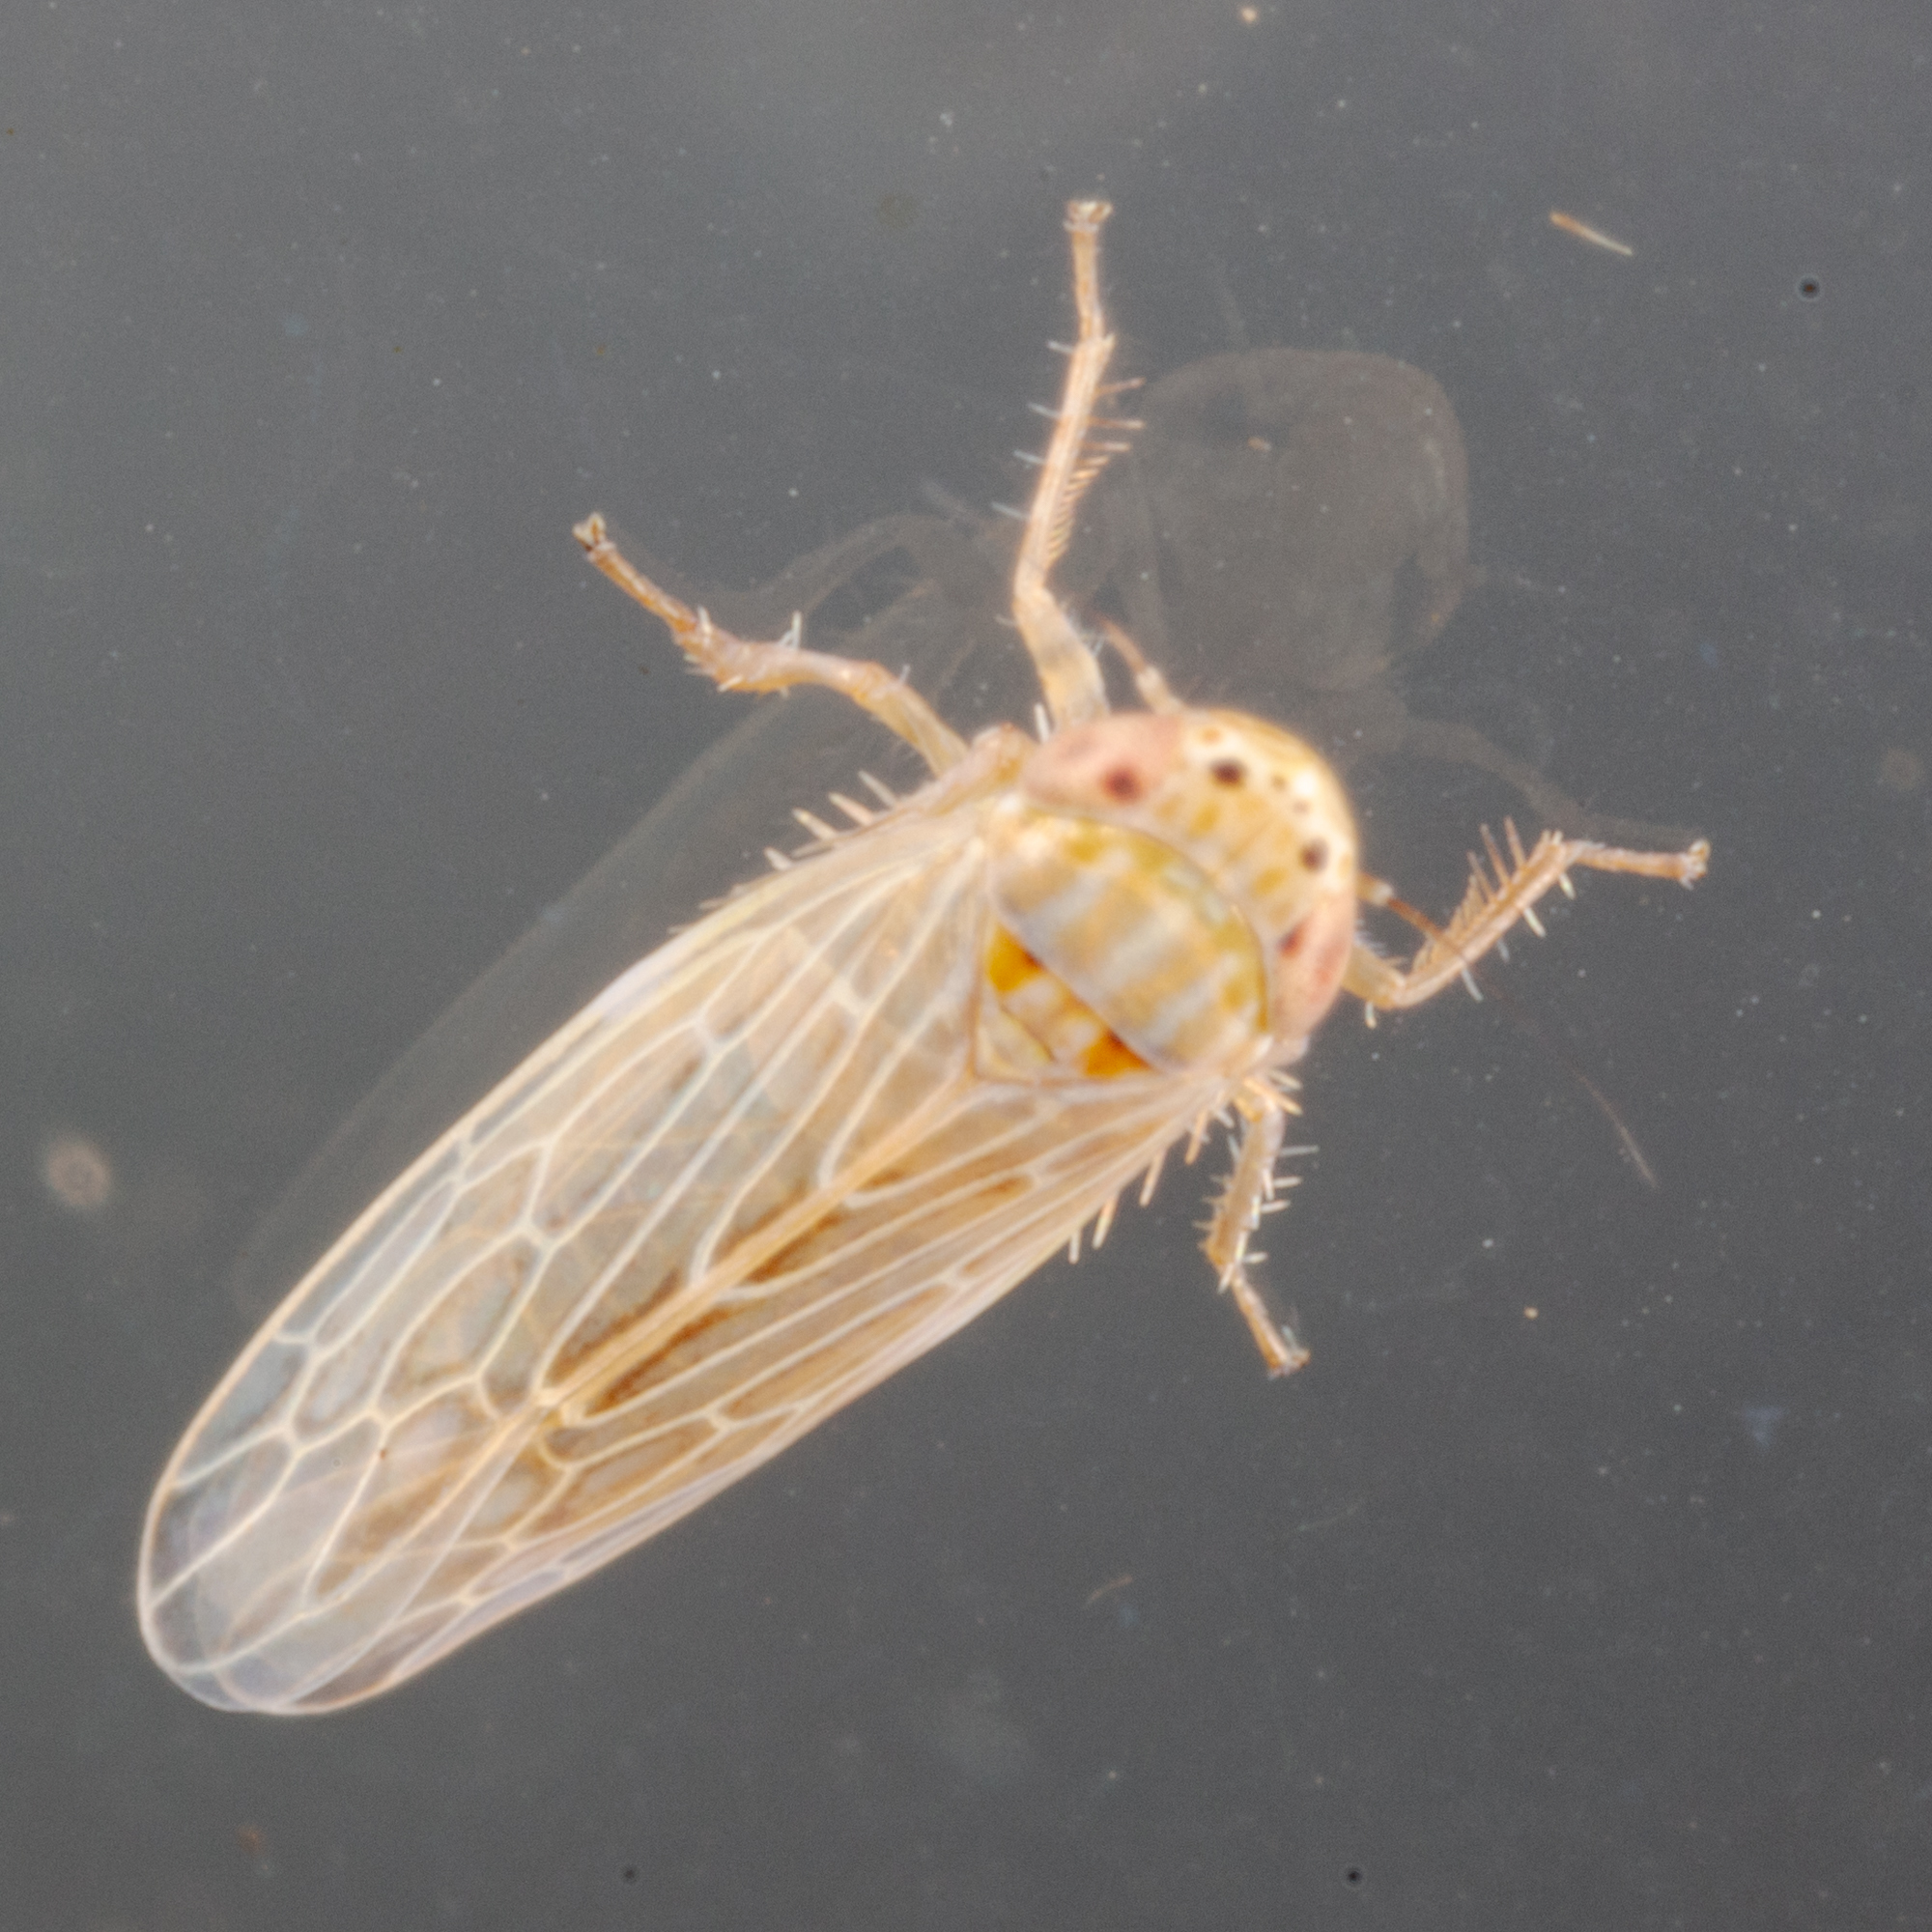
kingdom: Animalia
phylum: Arthropoda
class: Insecta
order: Hemiptera
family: Cicadellidae
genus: Graminella
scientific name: Graminella sonora
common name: Lesser lawn leafhopper
